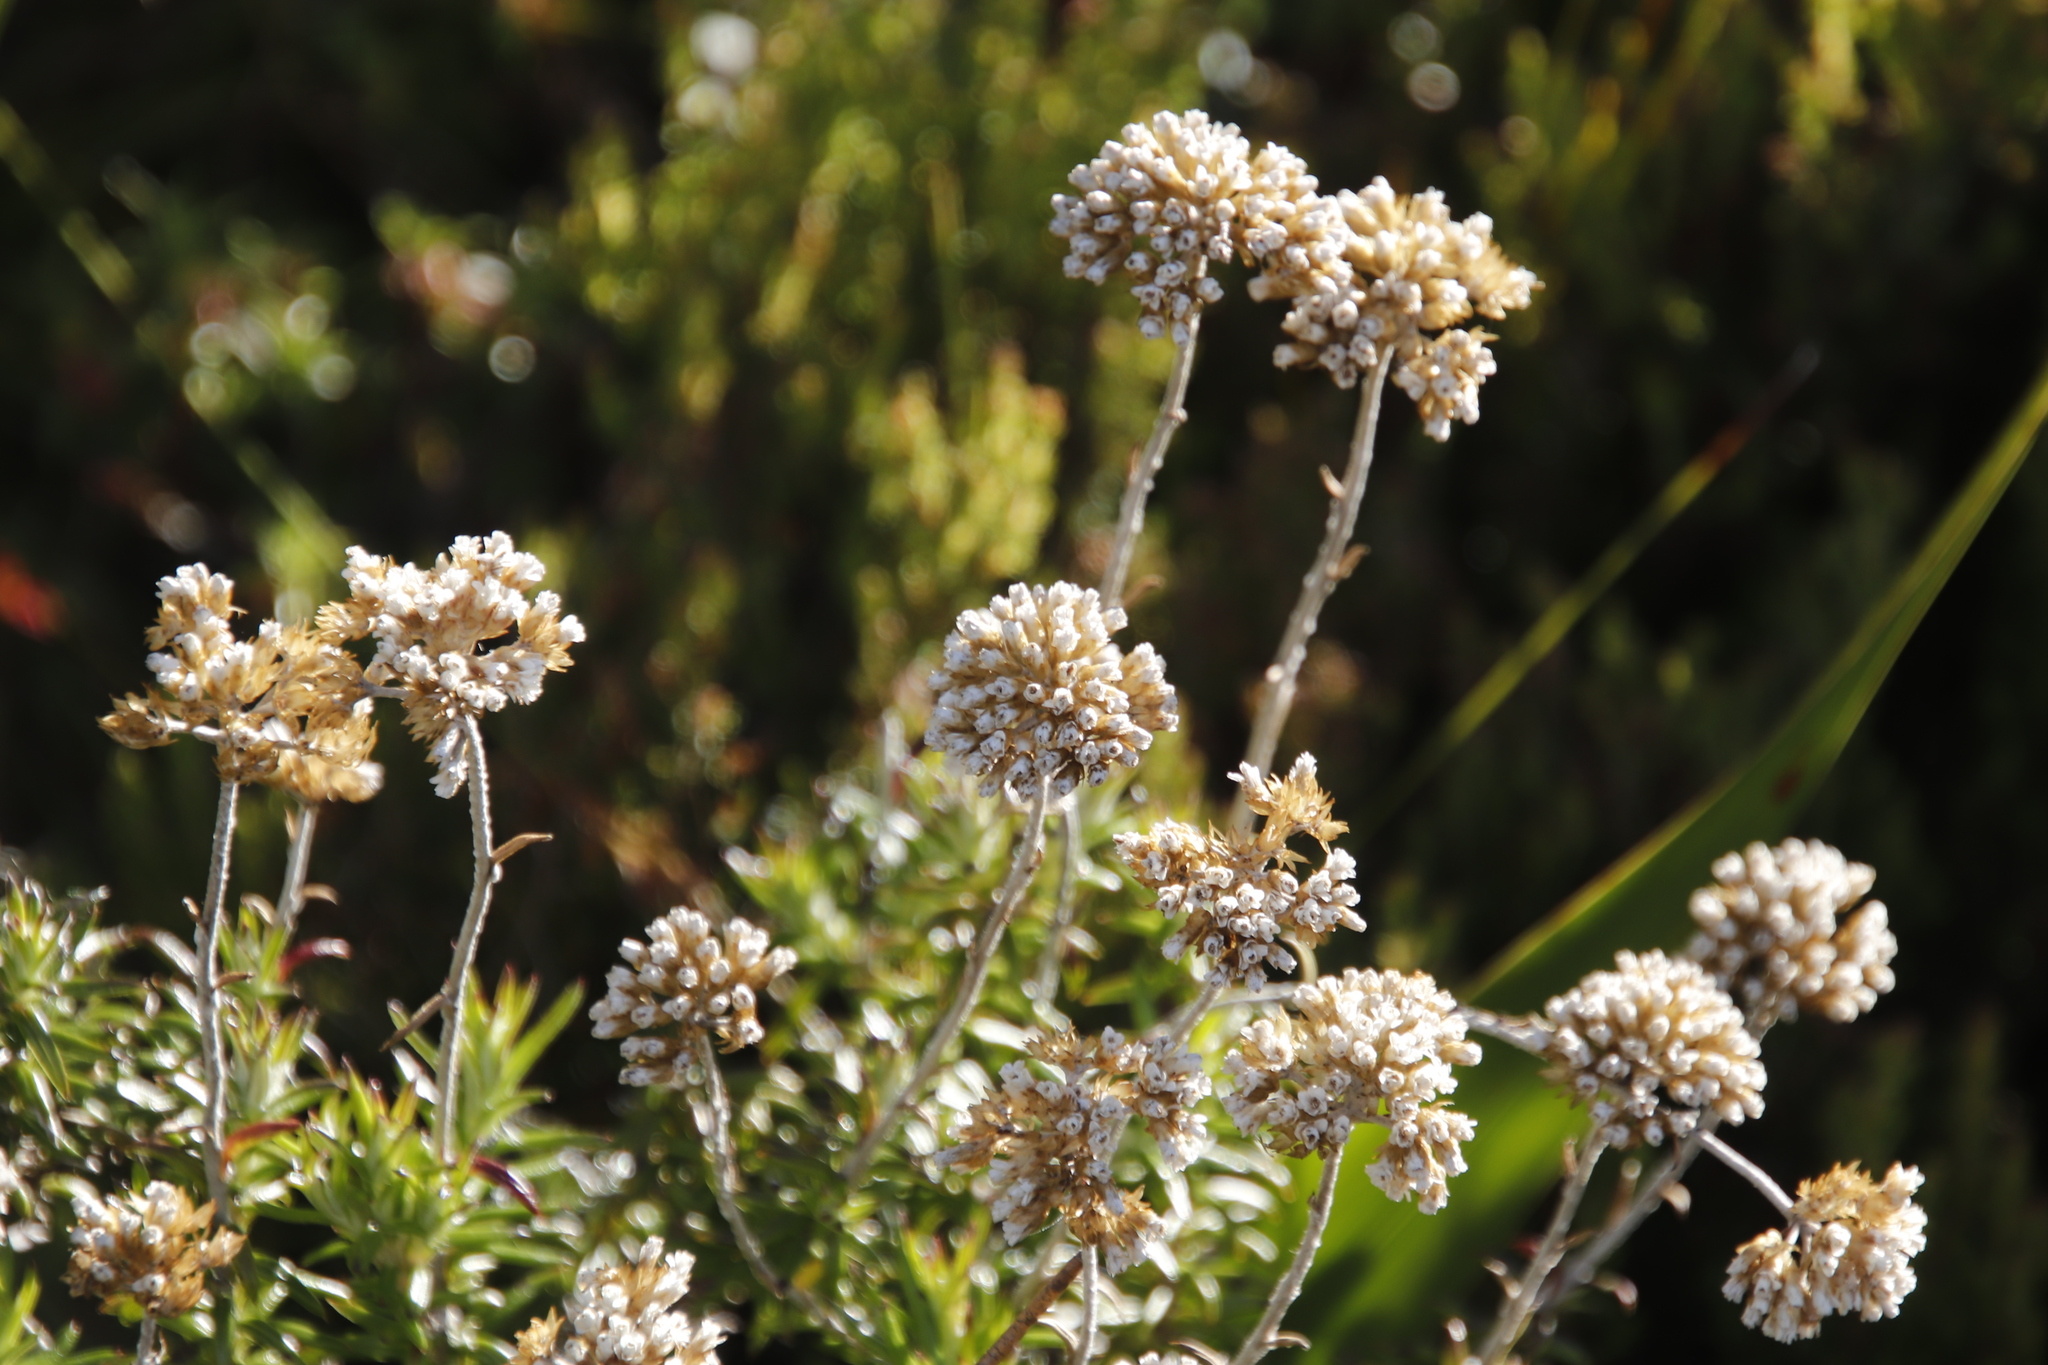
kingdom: Plantae
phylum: Tracheophyta
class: Magnoliopsida
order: Asterales
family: Asteraceae
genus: Anaxeton
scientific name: Anaxeton arborescens
